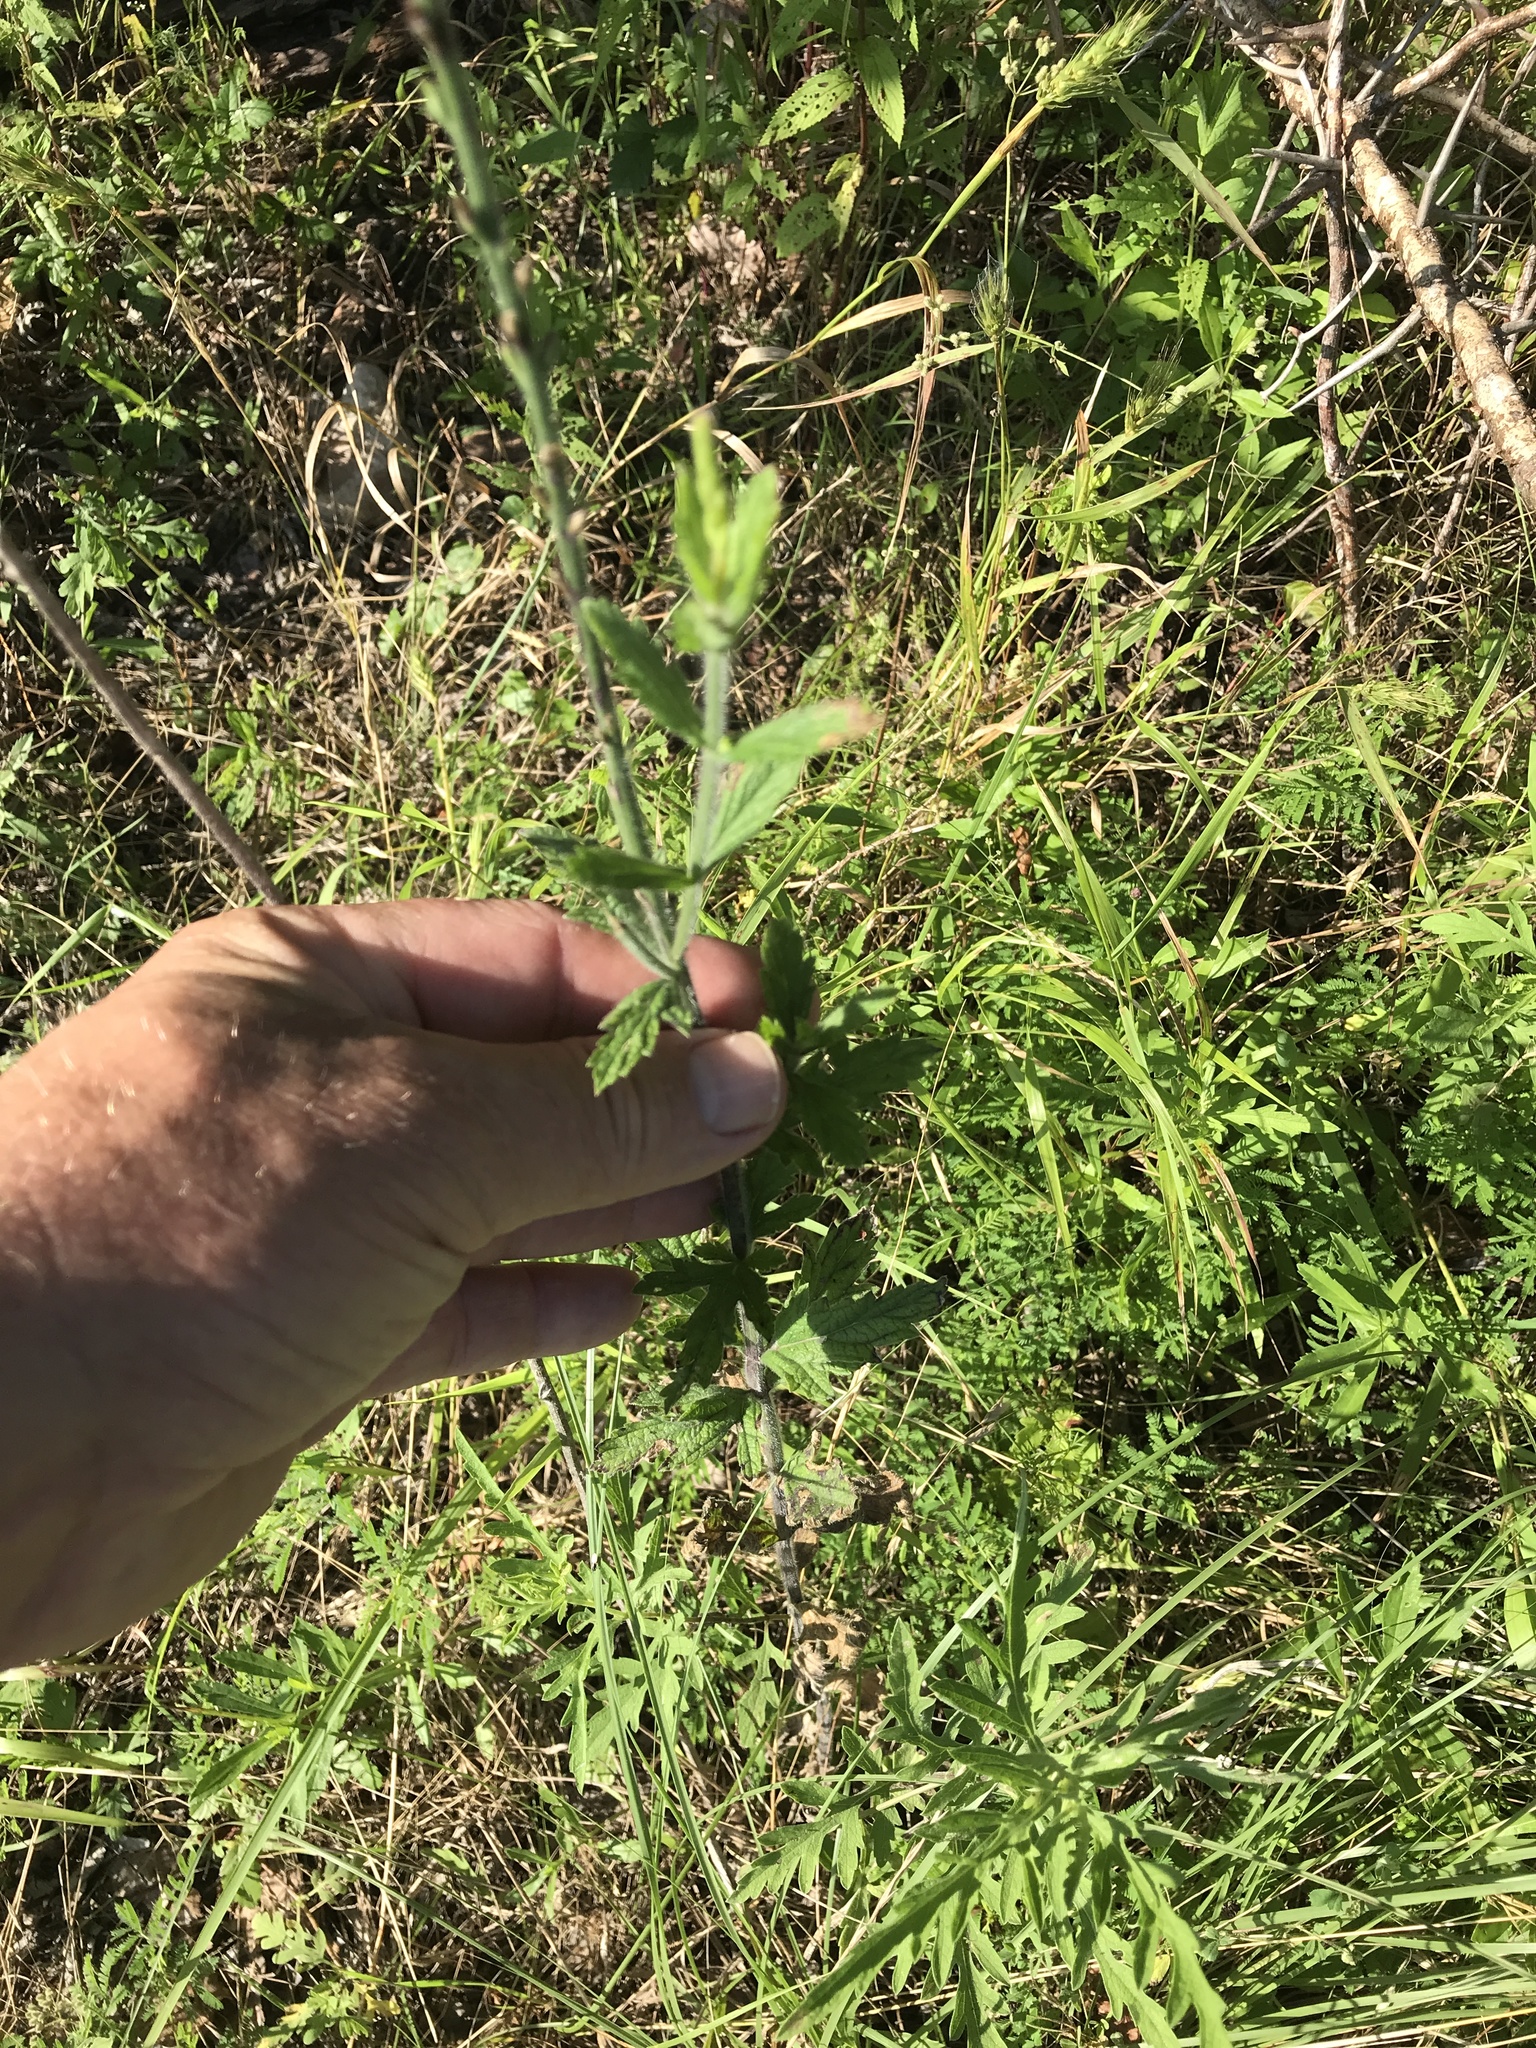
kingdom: Plantae
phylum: Tracheophyta
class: Magnoliopsida
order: Lamiales
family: Verbenaceae
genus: Verbena
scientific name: Verbena xutha
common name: Gulf vervain
